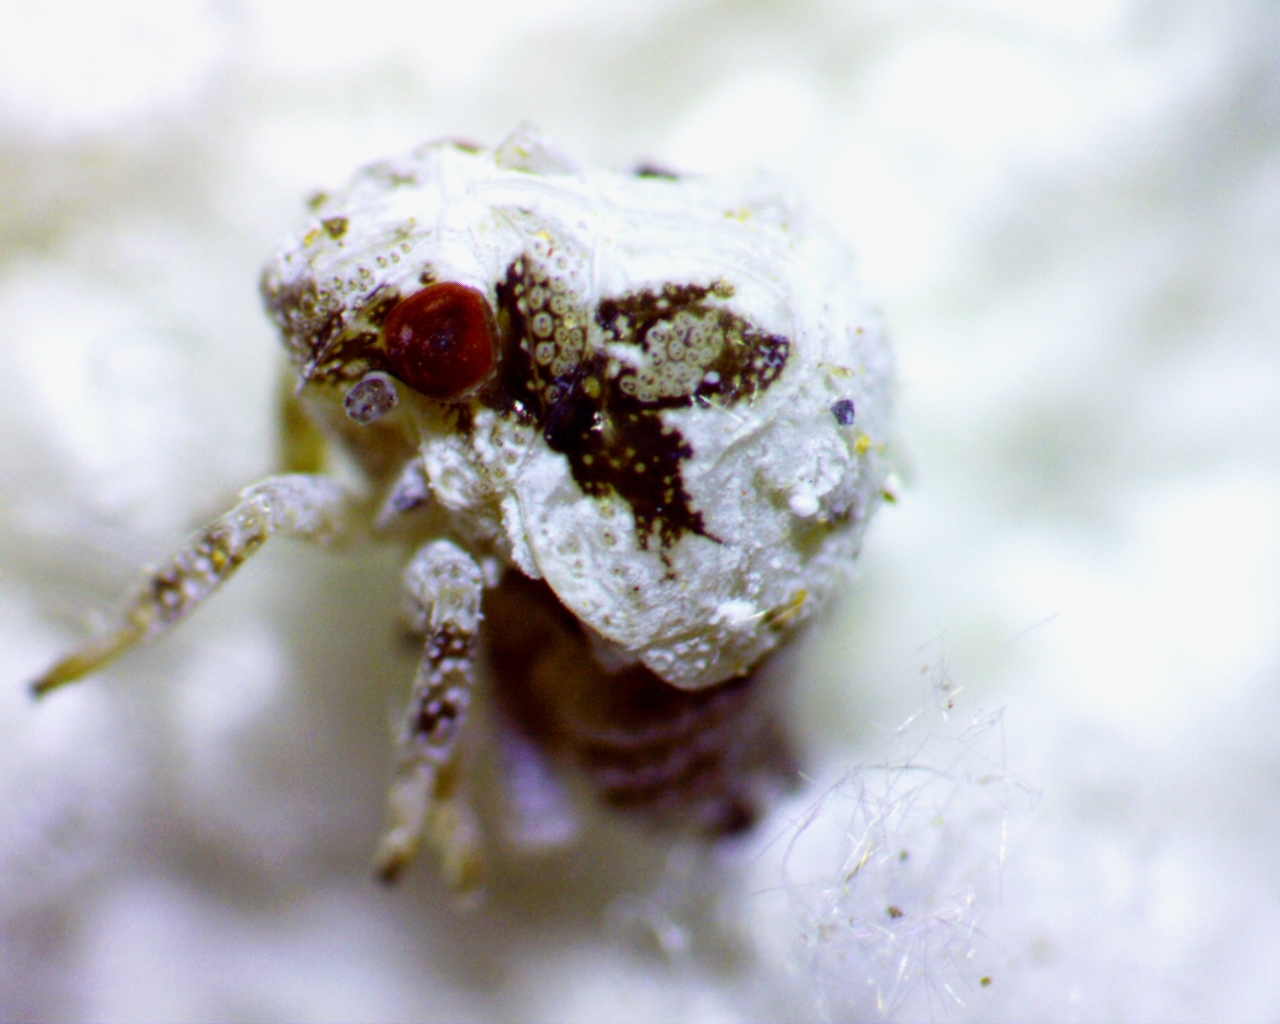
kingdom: Animalia
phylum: Arthropoda
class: Insecta
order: Hemiptera
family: Acanaloniidae
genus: Acanalonia
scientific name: Acanalonia servillei
